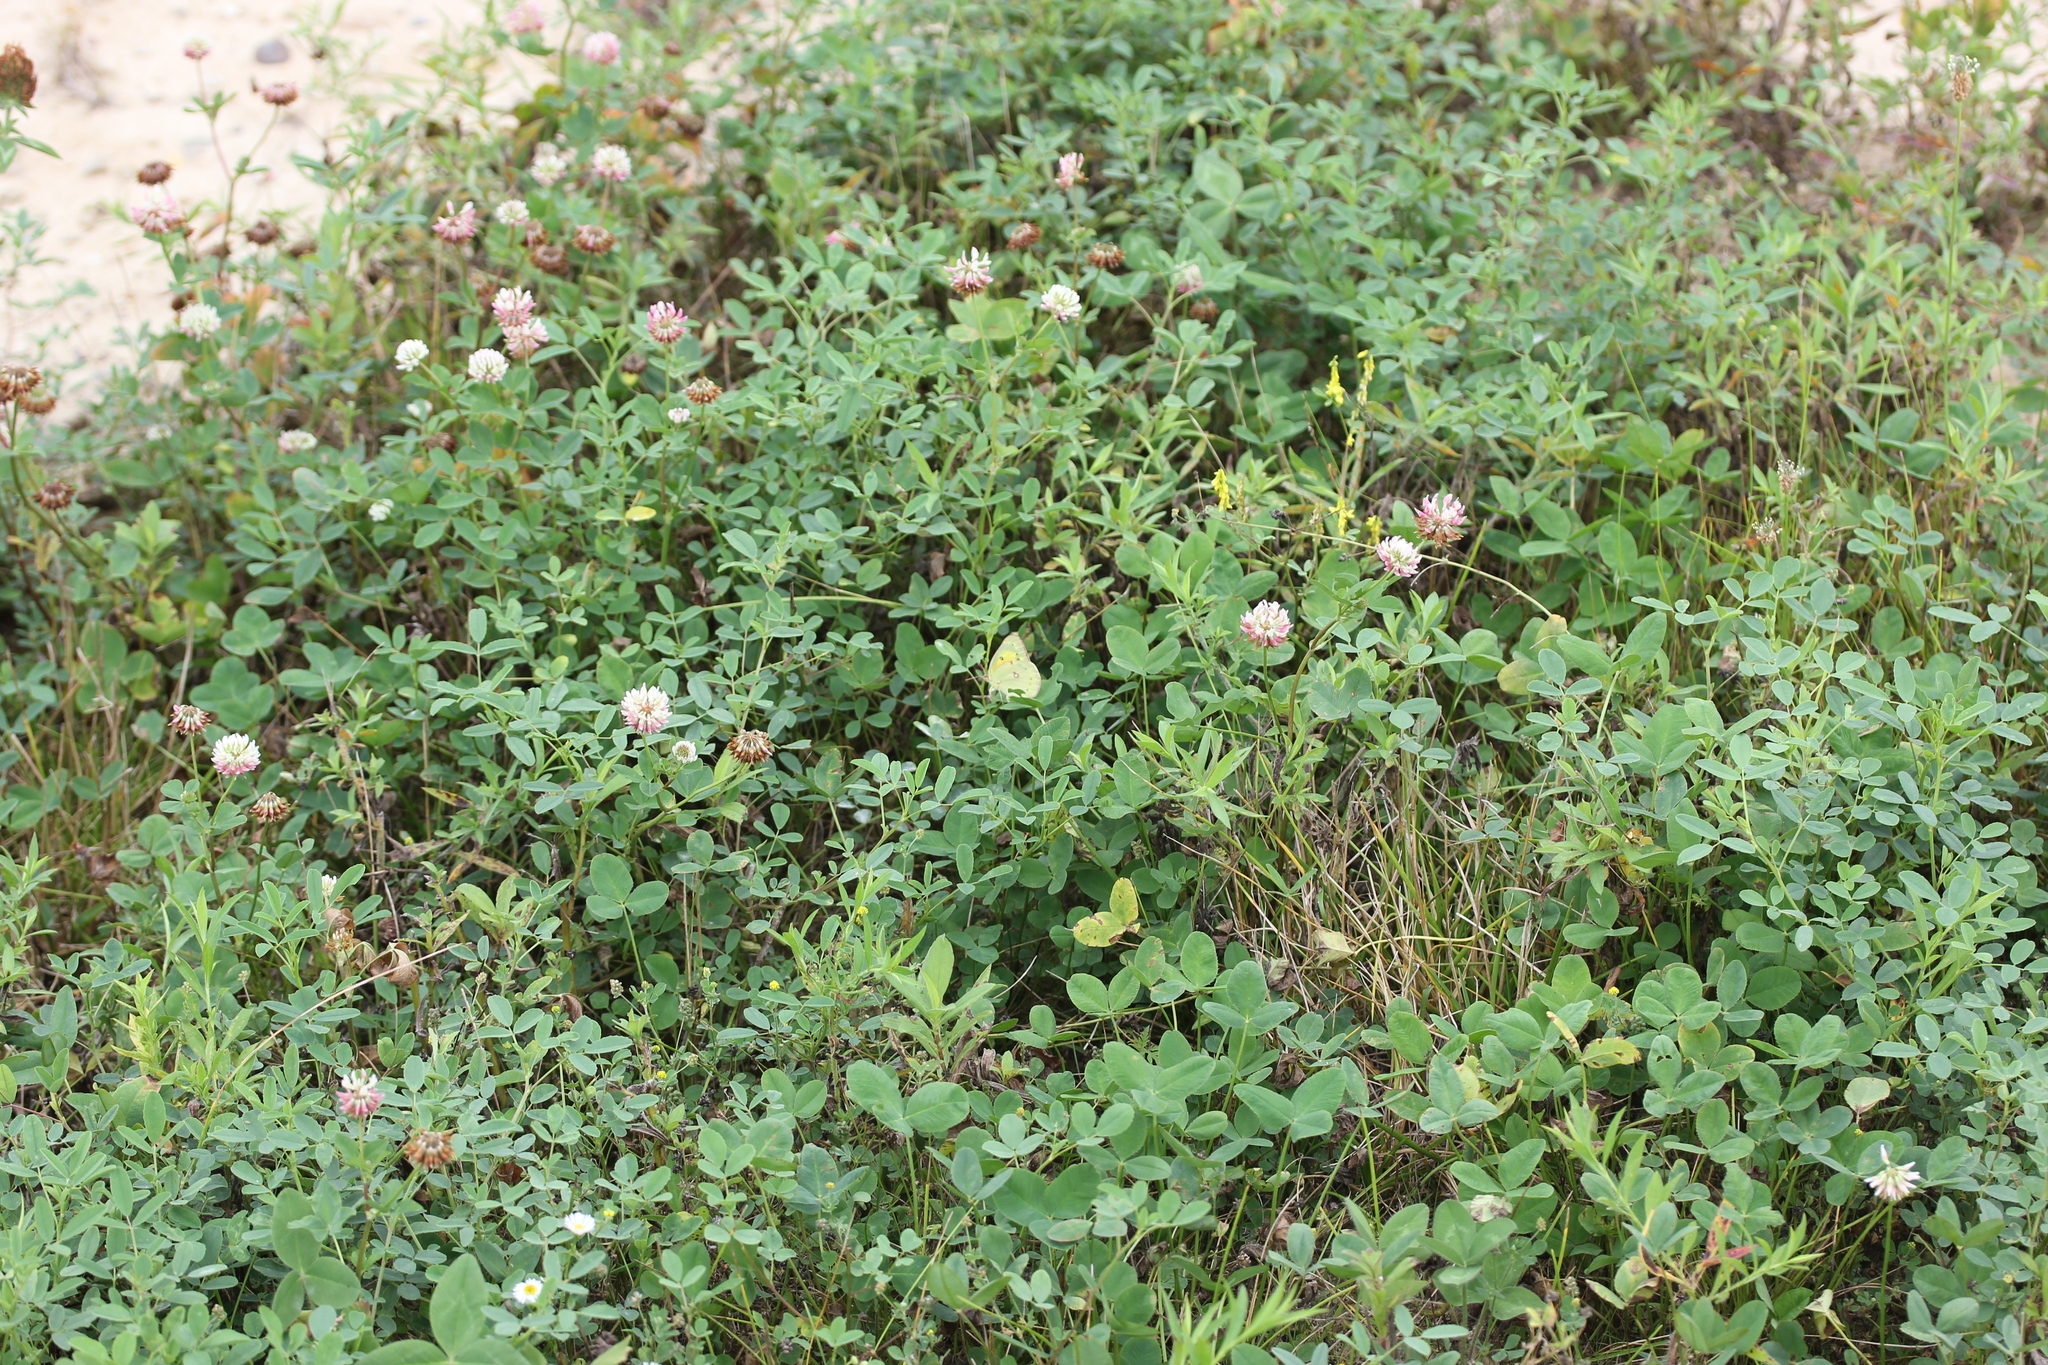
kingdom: Plantae
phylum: Tracheophyta
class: Magnoliopsida
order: Fabales
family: Fabaceae
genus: Trifolium
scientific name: Trifolium hybridum
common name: Alsike clover
